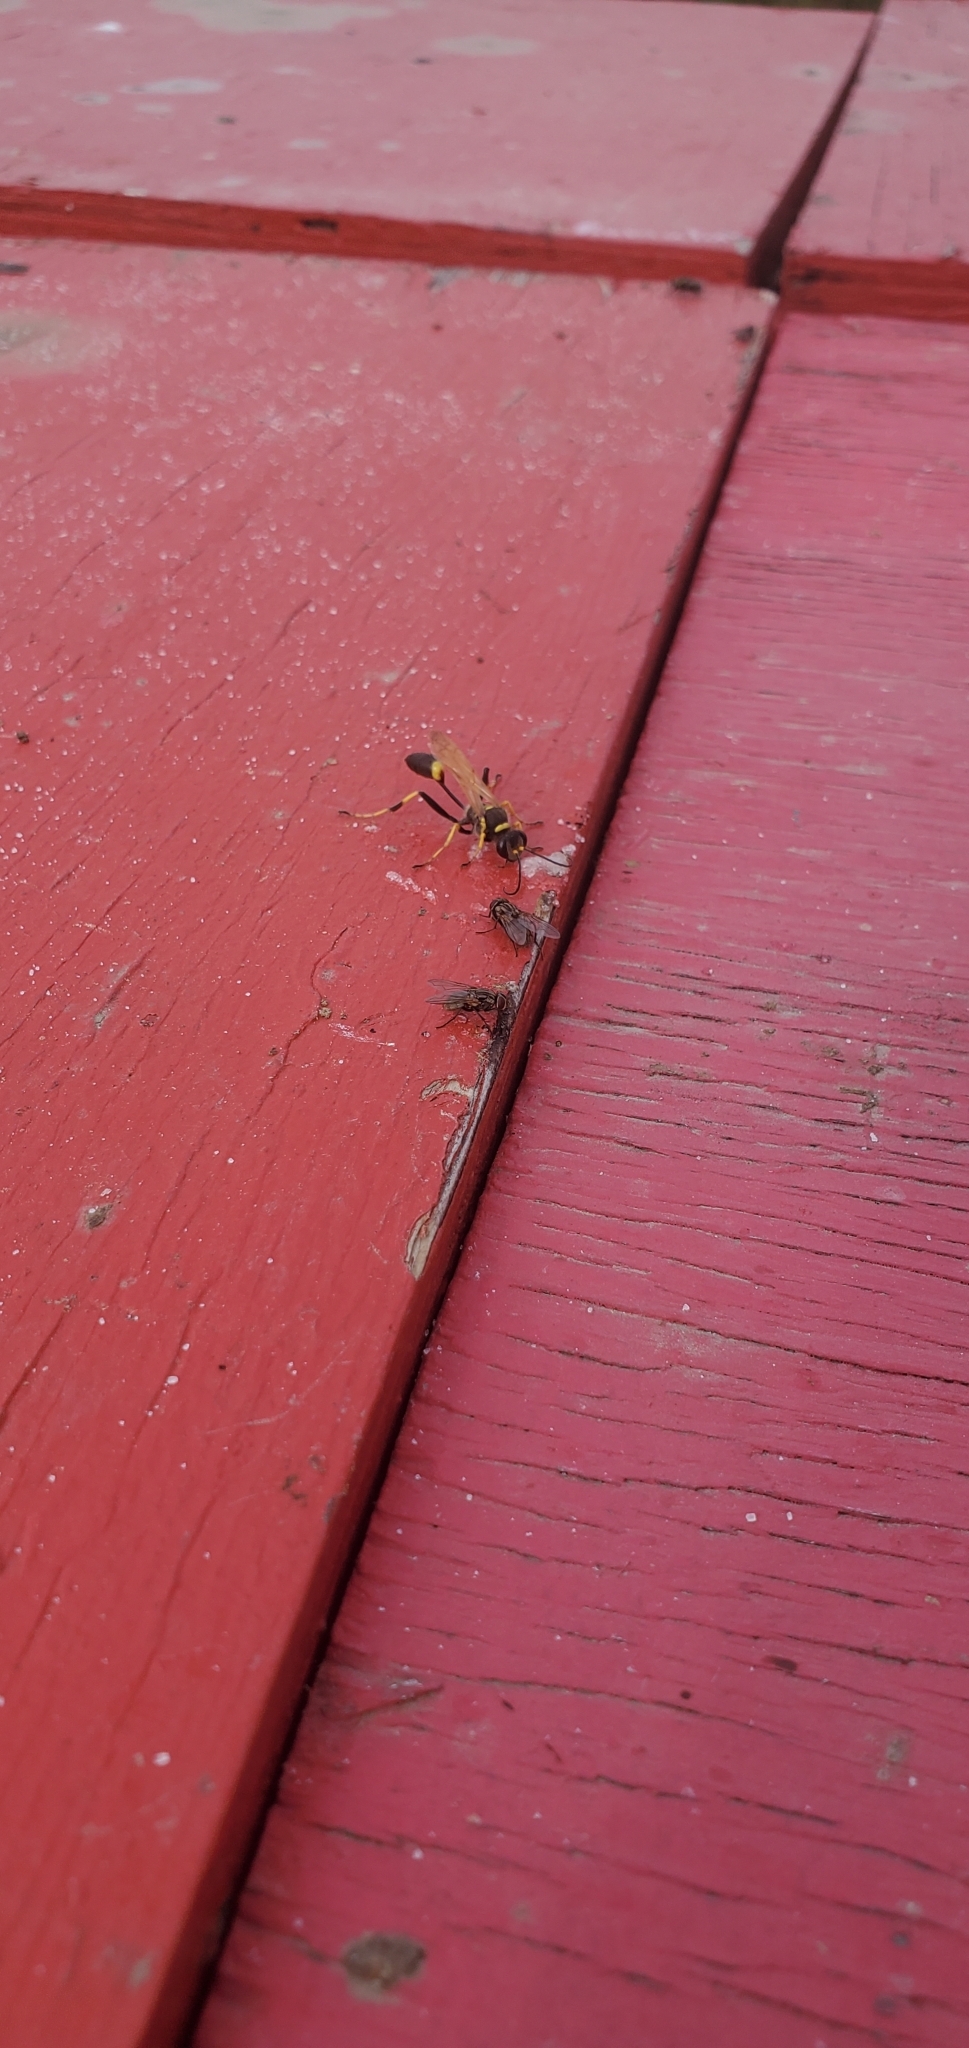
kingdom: Animalia
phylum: Arthropoda
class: Insecta
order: Hymenoptera
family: Sphecidae
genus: Sceliphron
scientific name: Sceliphron caementarium
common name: Mud dauber
